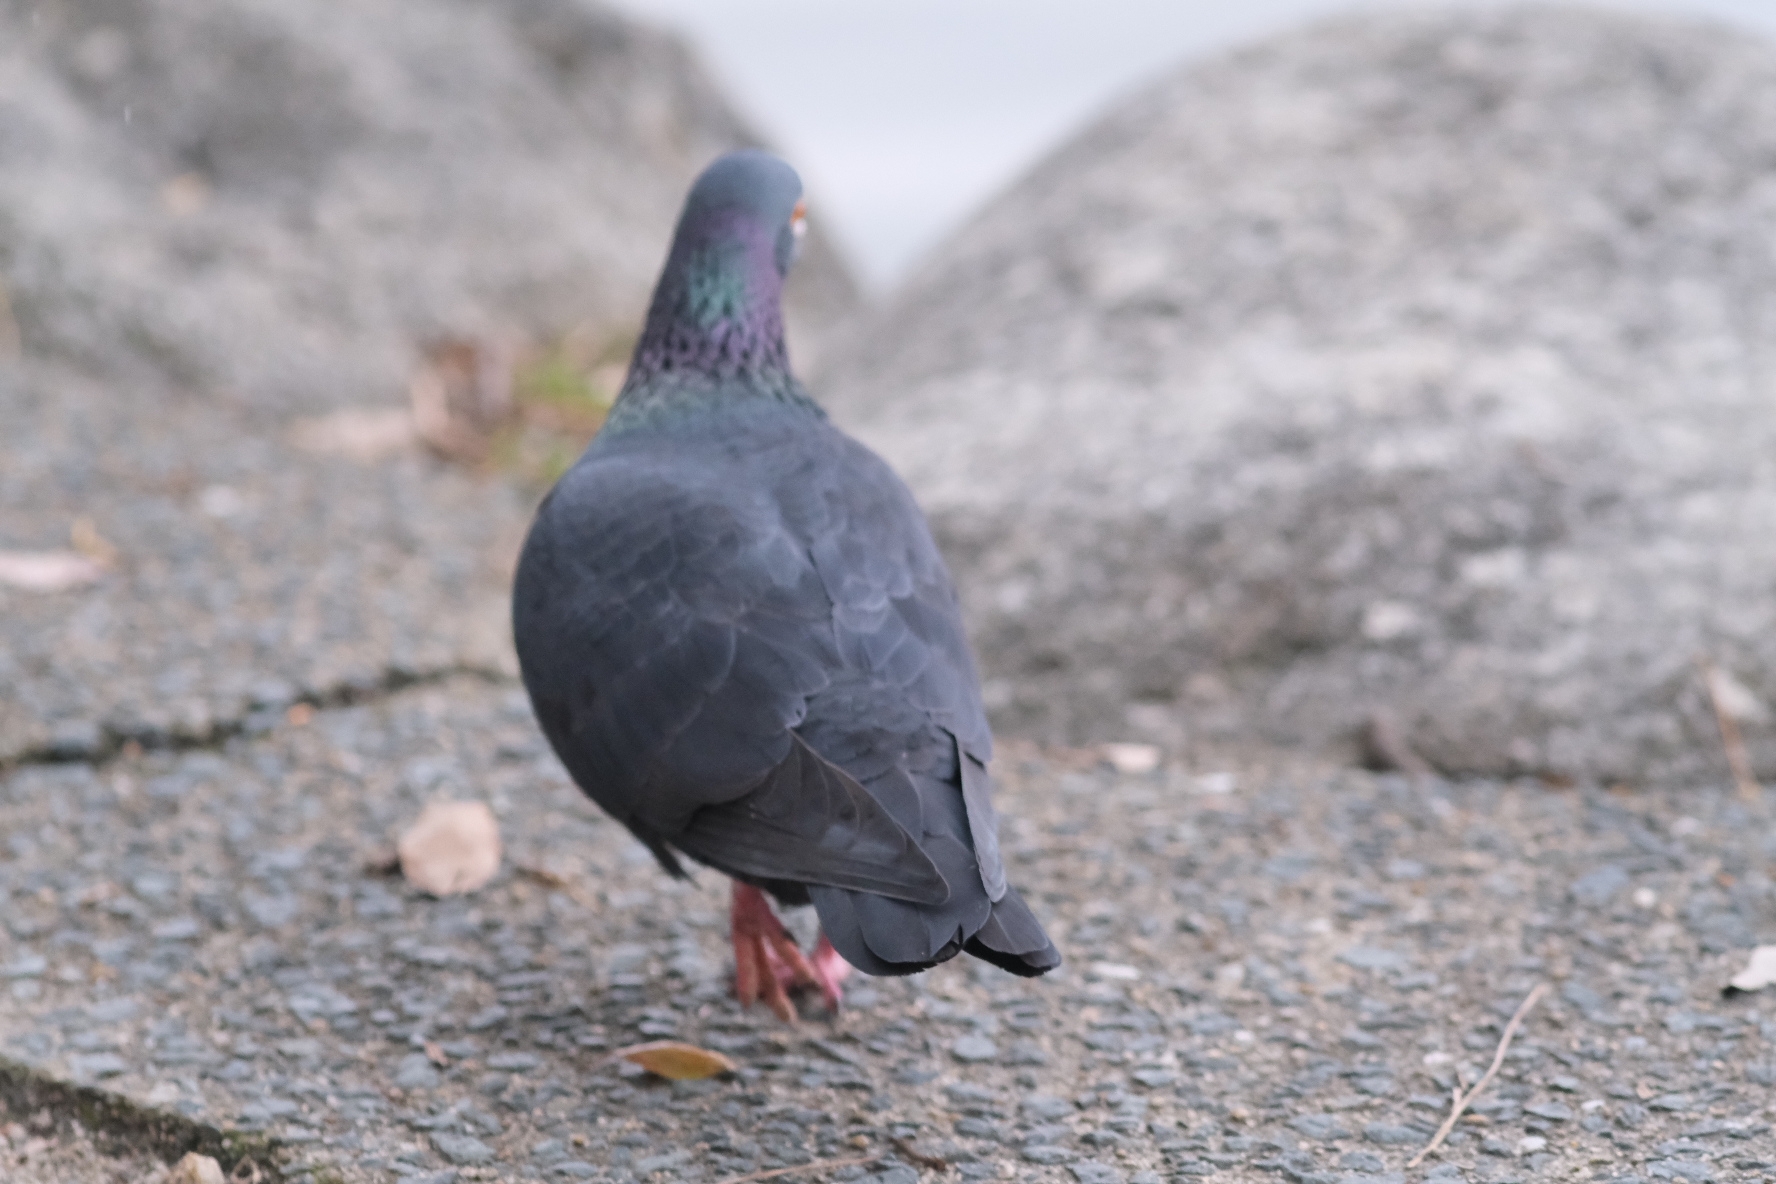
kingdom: Animalia
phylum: Chordata
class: Aves
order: Columbiformes
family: Columbidae
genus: Columba
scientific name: Columba livia
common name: Rock pigeon
